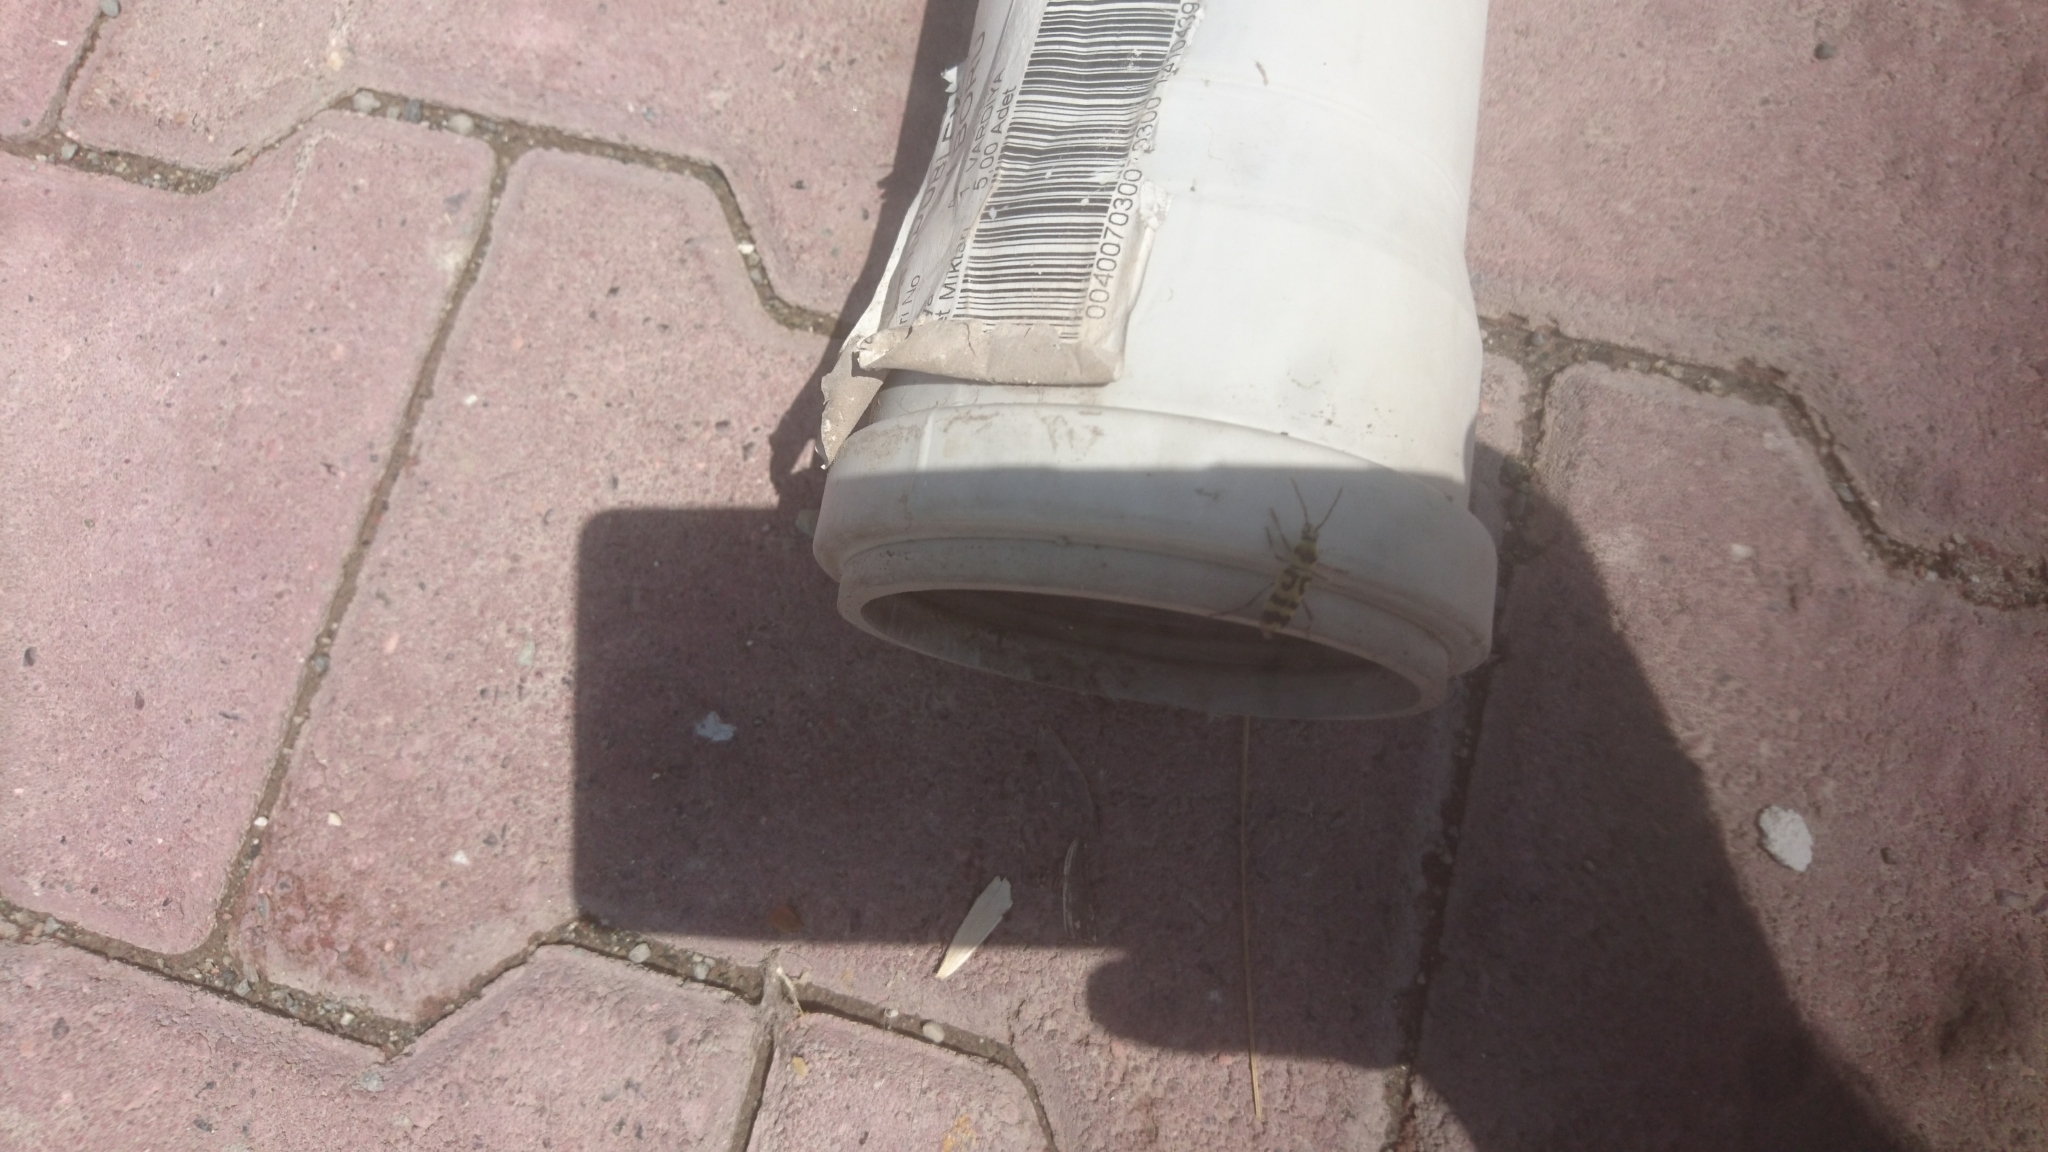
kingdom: Animalia
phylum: Arthropoda
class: Insecta
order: Coleoptera
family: Cerambycidae
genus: Chlorophorus
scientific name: Chlorophorus varius
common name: Grape wood borer
